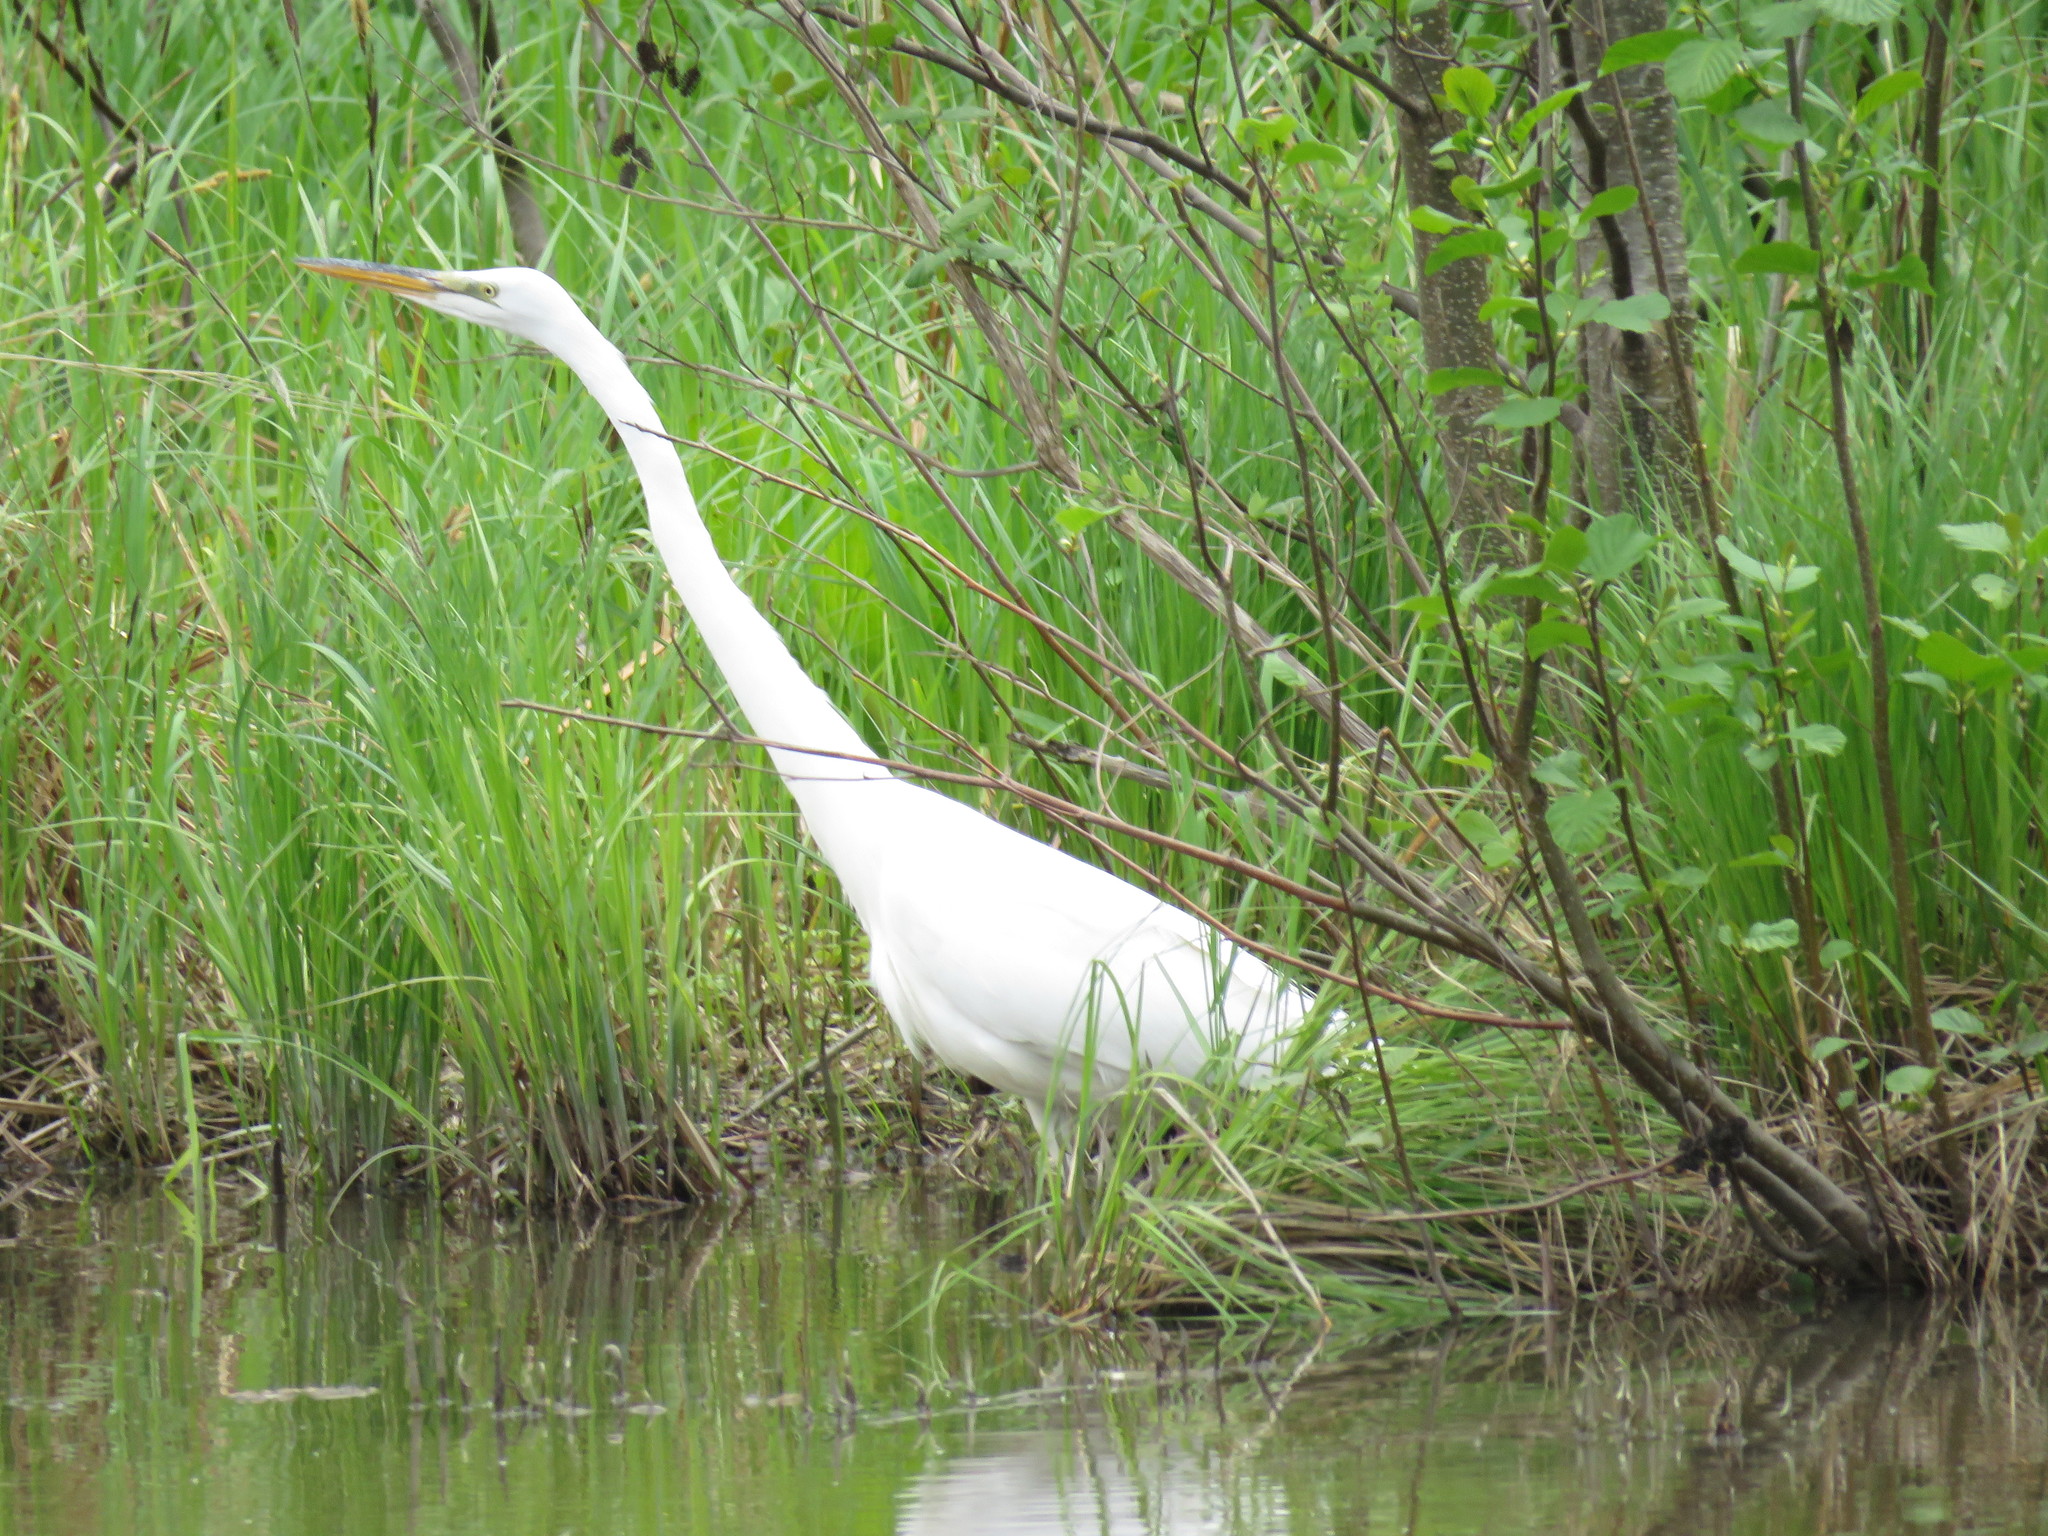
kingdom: Animalia
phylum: Chordata
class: Aves
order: Pelecaniformes
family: Ardeidae
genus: Ardea
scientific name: Ardea alba
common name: Great egret
